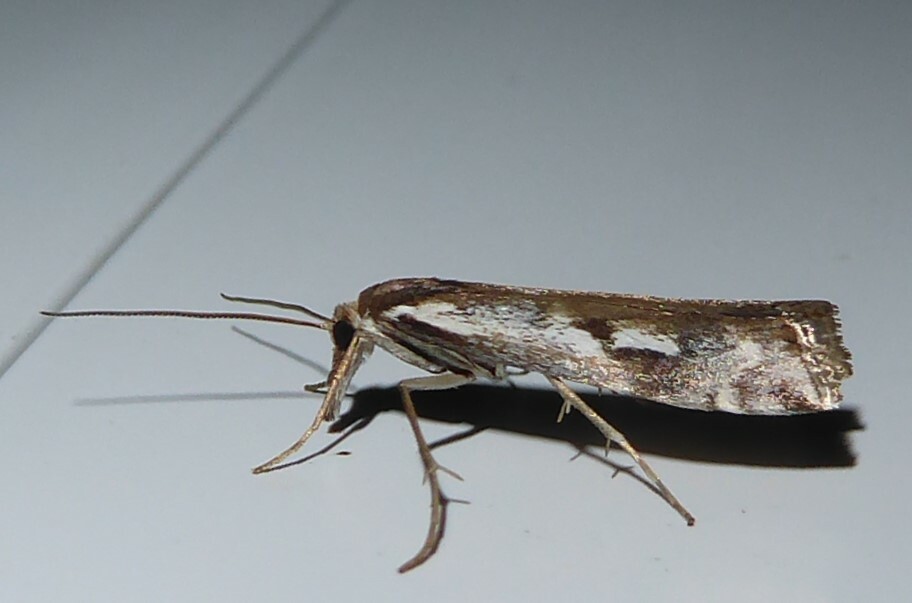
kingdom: Animalia
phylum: Arthropoda
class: Insecta
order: Lepidoptera
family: Crambidae
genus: Orocrambus
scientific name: Orocrambus vulgaris
